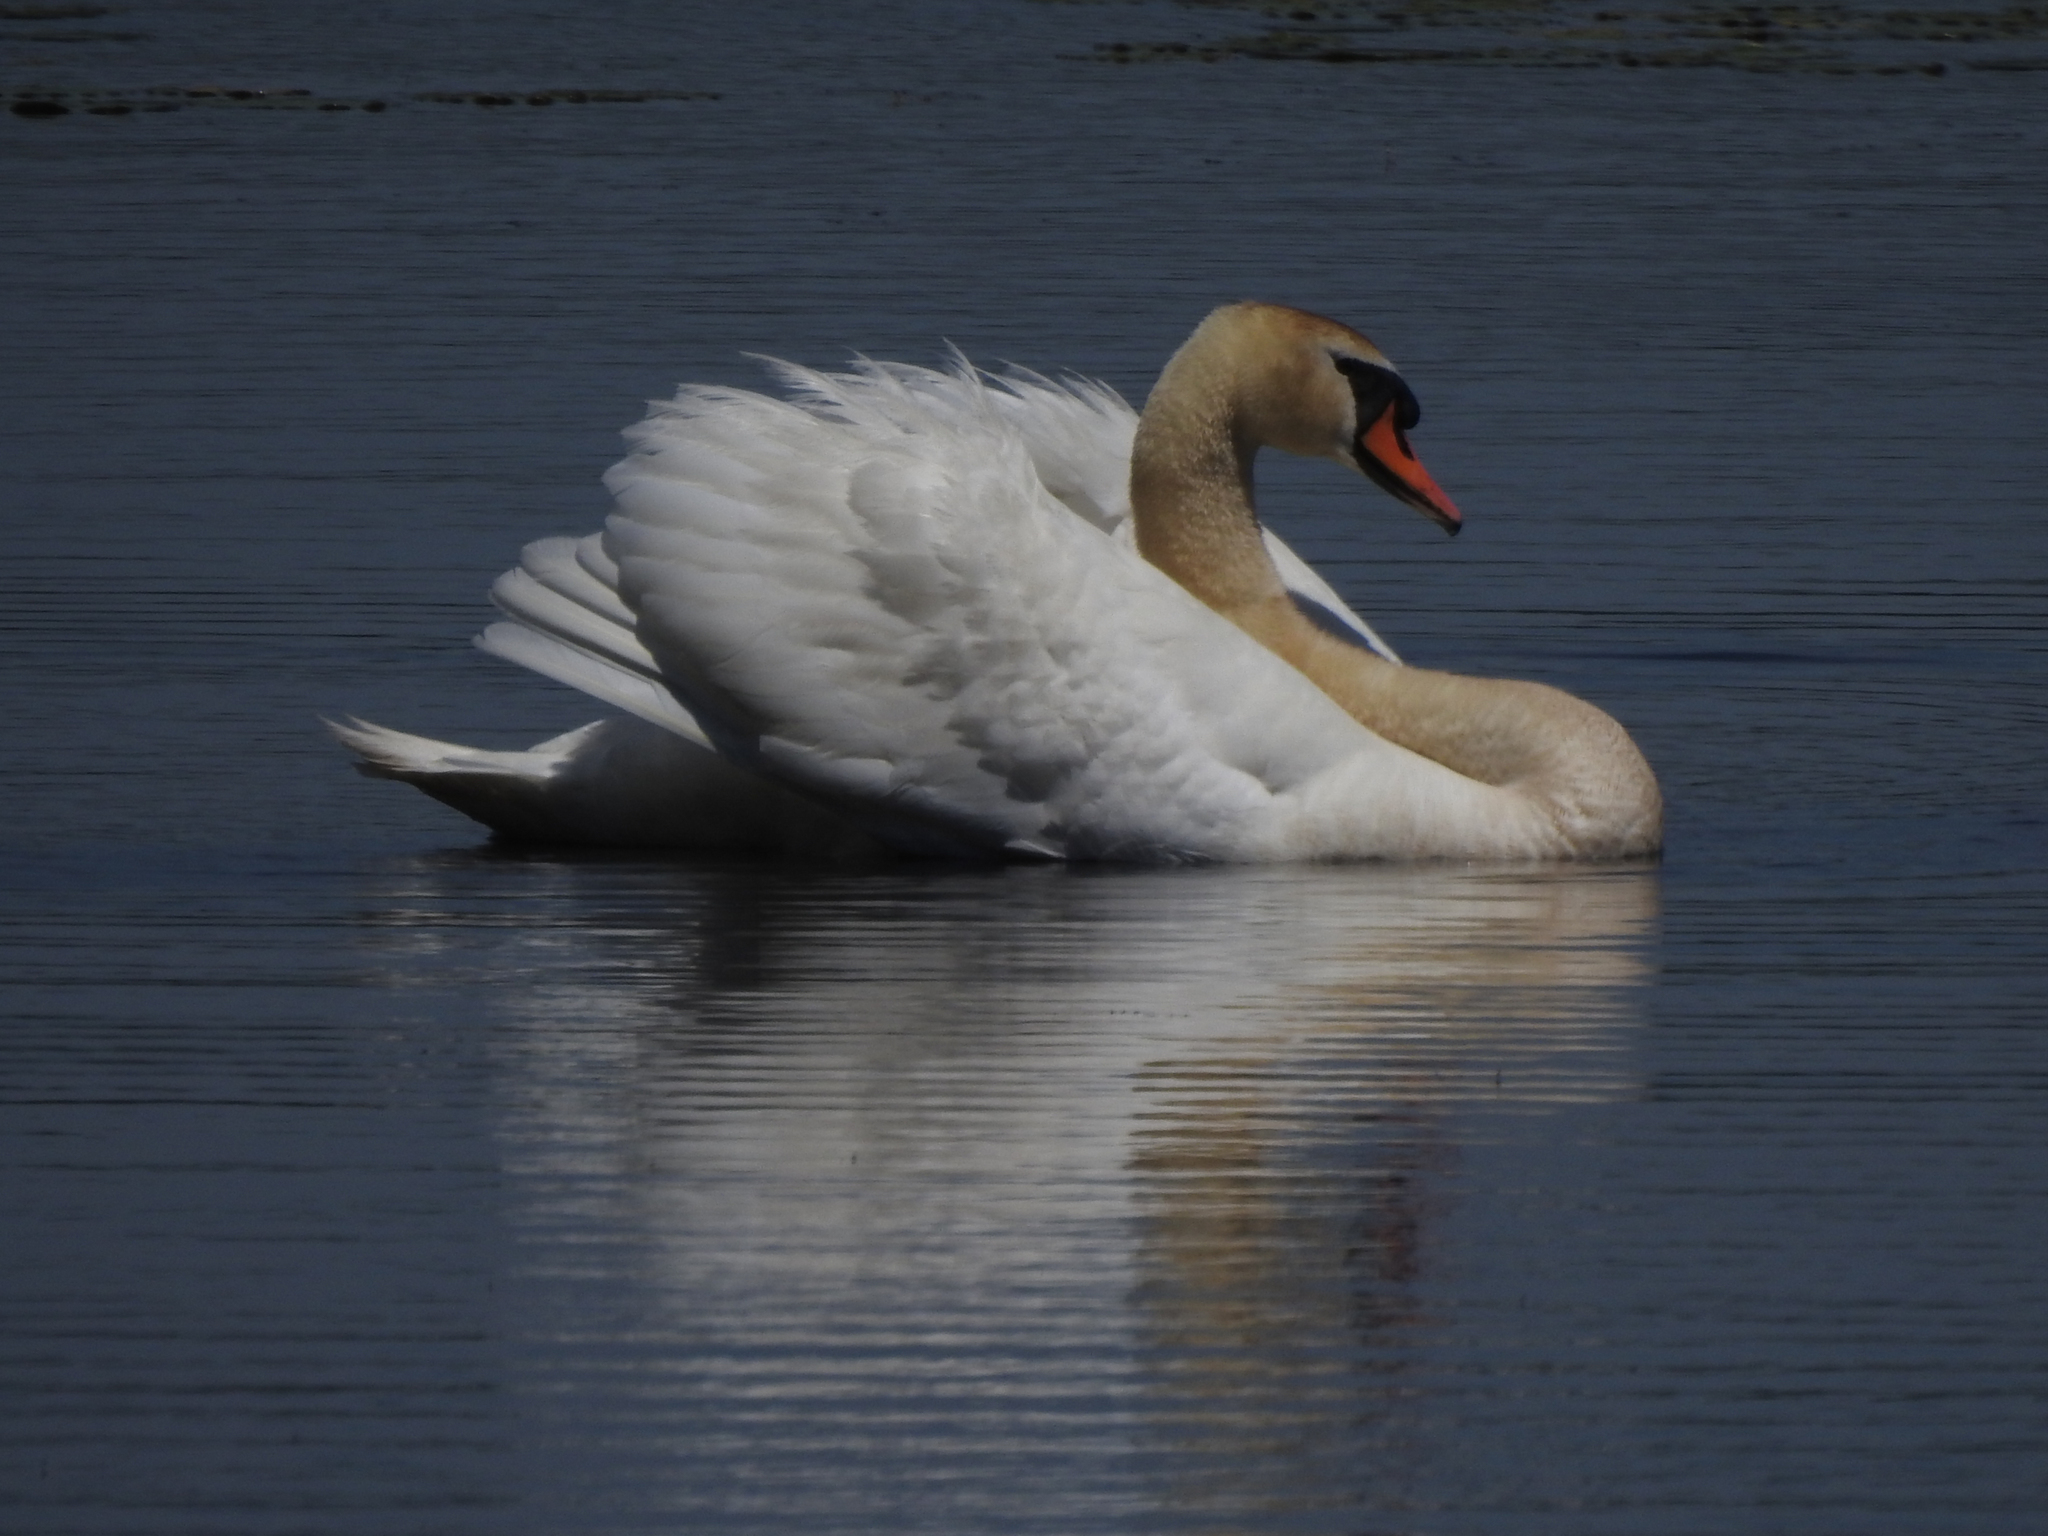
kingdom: Animalia
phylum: Chordata
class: Aves
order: Anseriformes
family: Anatidae
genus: Cygnus
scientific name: Cygnus olor
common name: Mute swan
